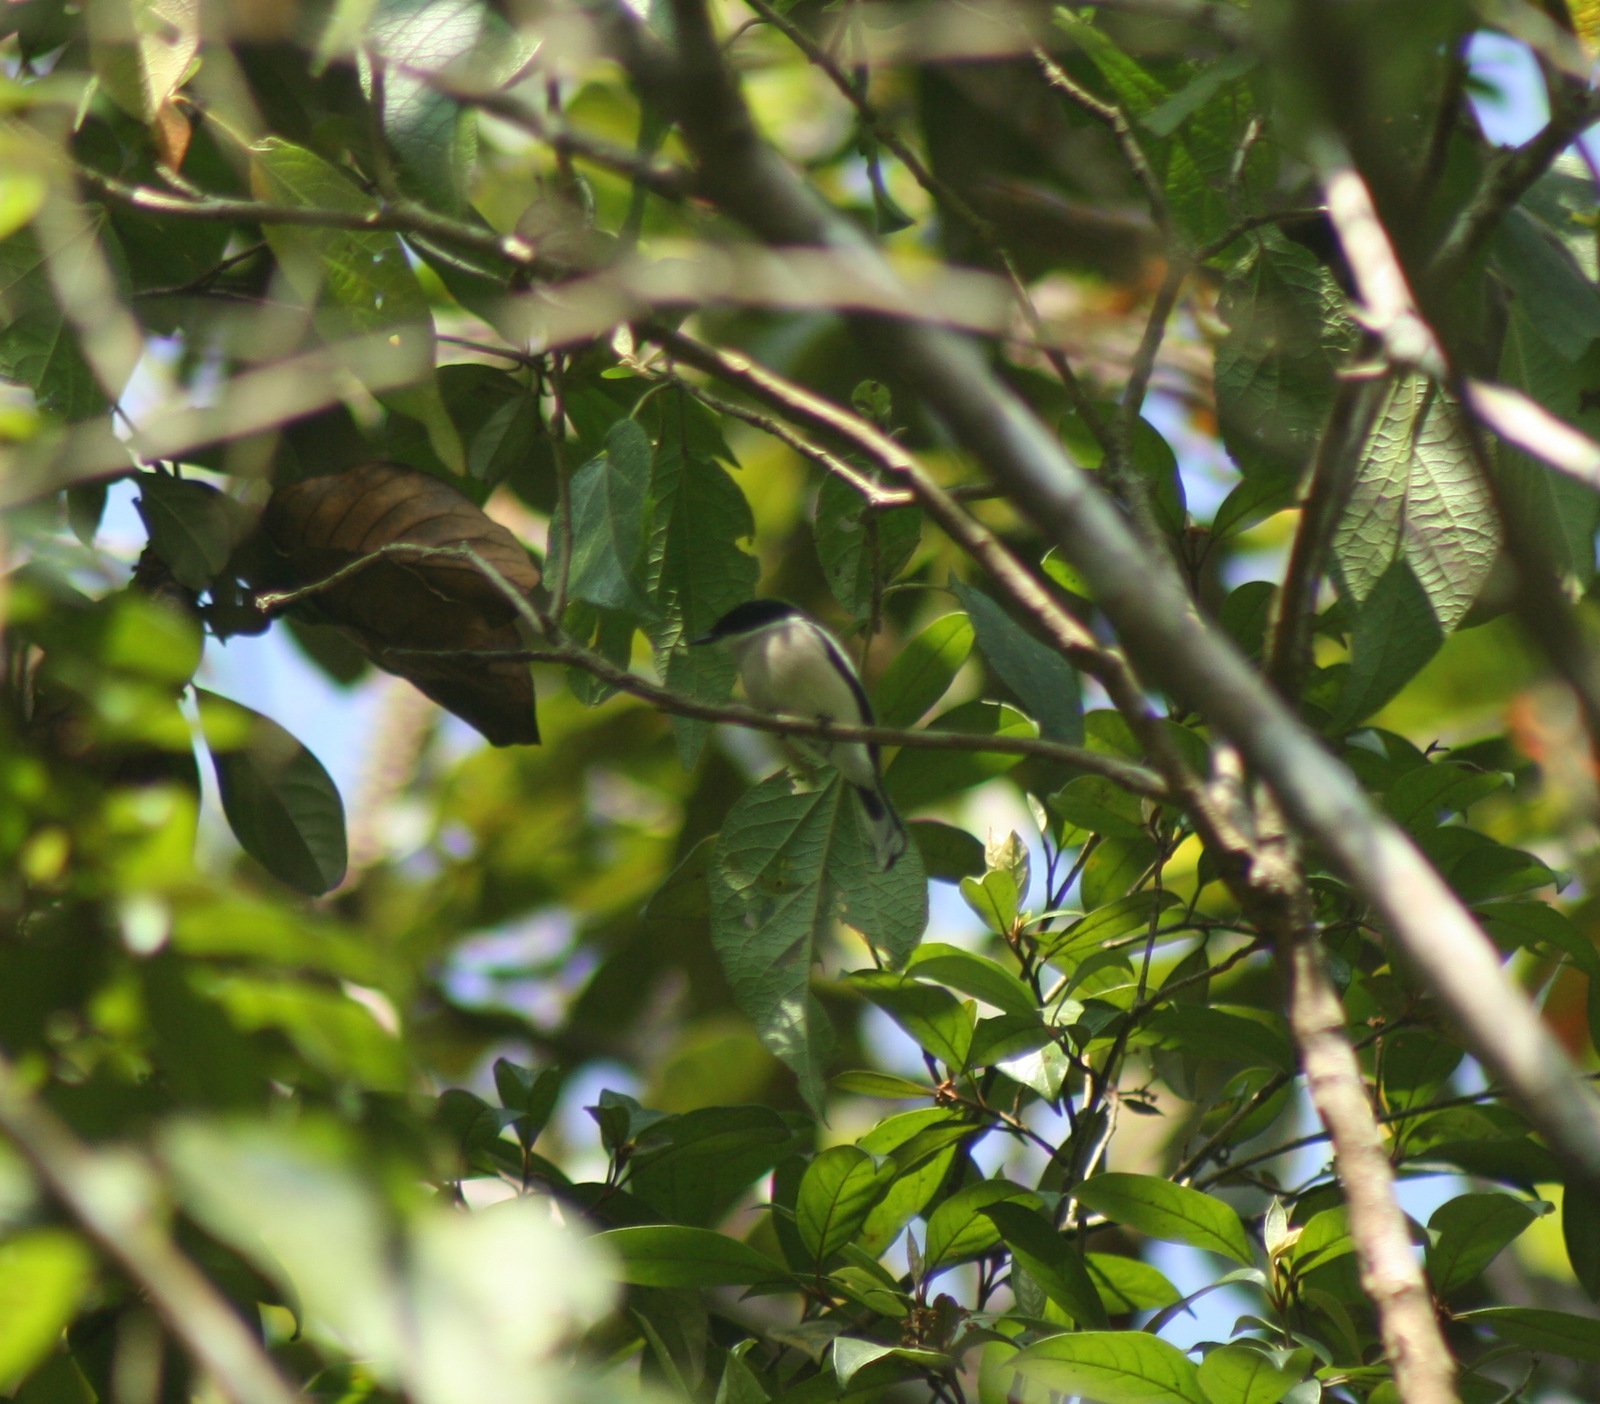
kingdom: Animalia
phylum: Chordata
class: Aves
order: Passeriformes
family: Tephrodornithidae
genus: Hemipus
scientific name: Hemipus picatus
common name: Bar-winged flycatcher-shrike
